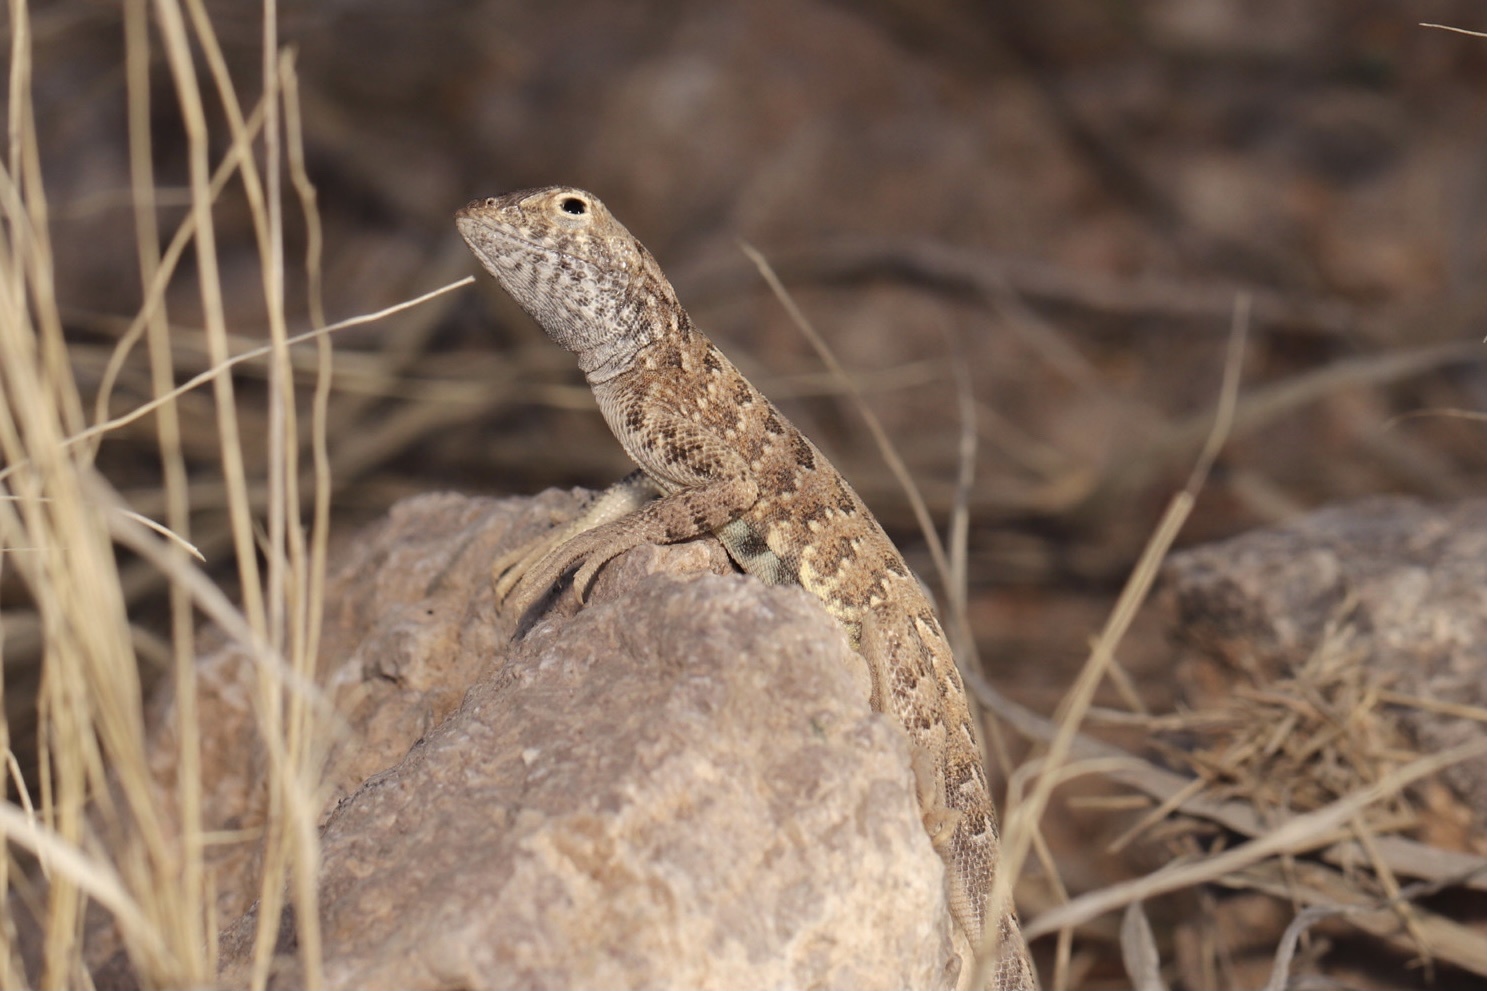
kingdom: Animalia
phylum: Chordata
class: Squamata
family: Phrynosomatidae
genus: Holbrookia
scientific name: Holbrookia elegans
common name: Elegant earless lizard
